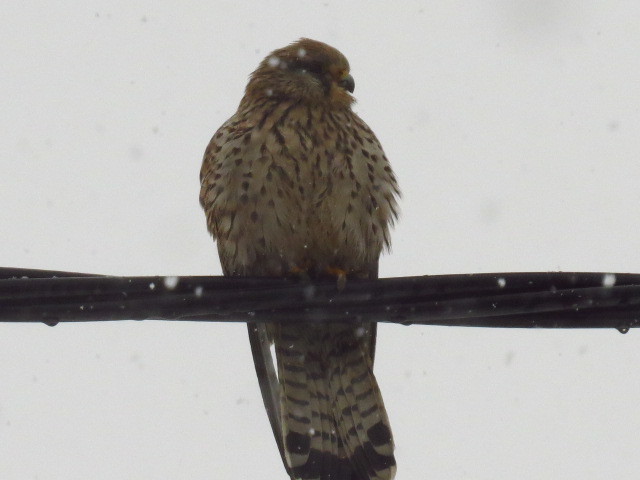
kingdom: Animalia
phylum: Chordata
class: Aves
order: Falconiformes
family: Falconidae
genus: Falco
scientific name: Falco tinnunculus
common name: Common kestrel
